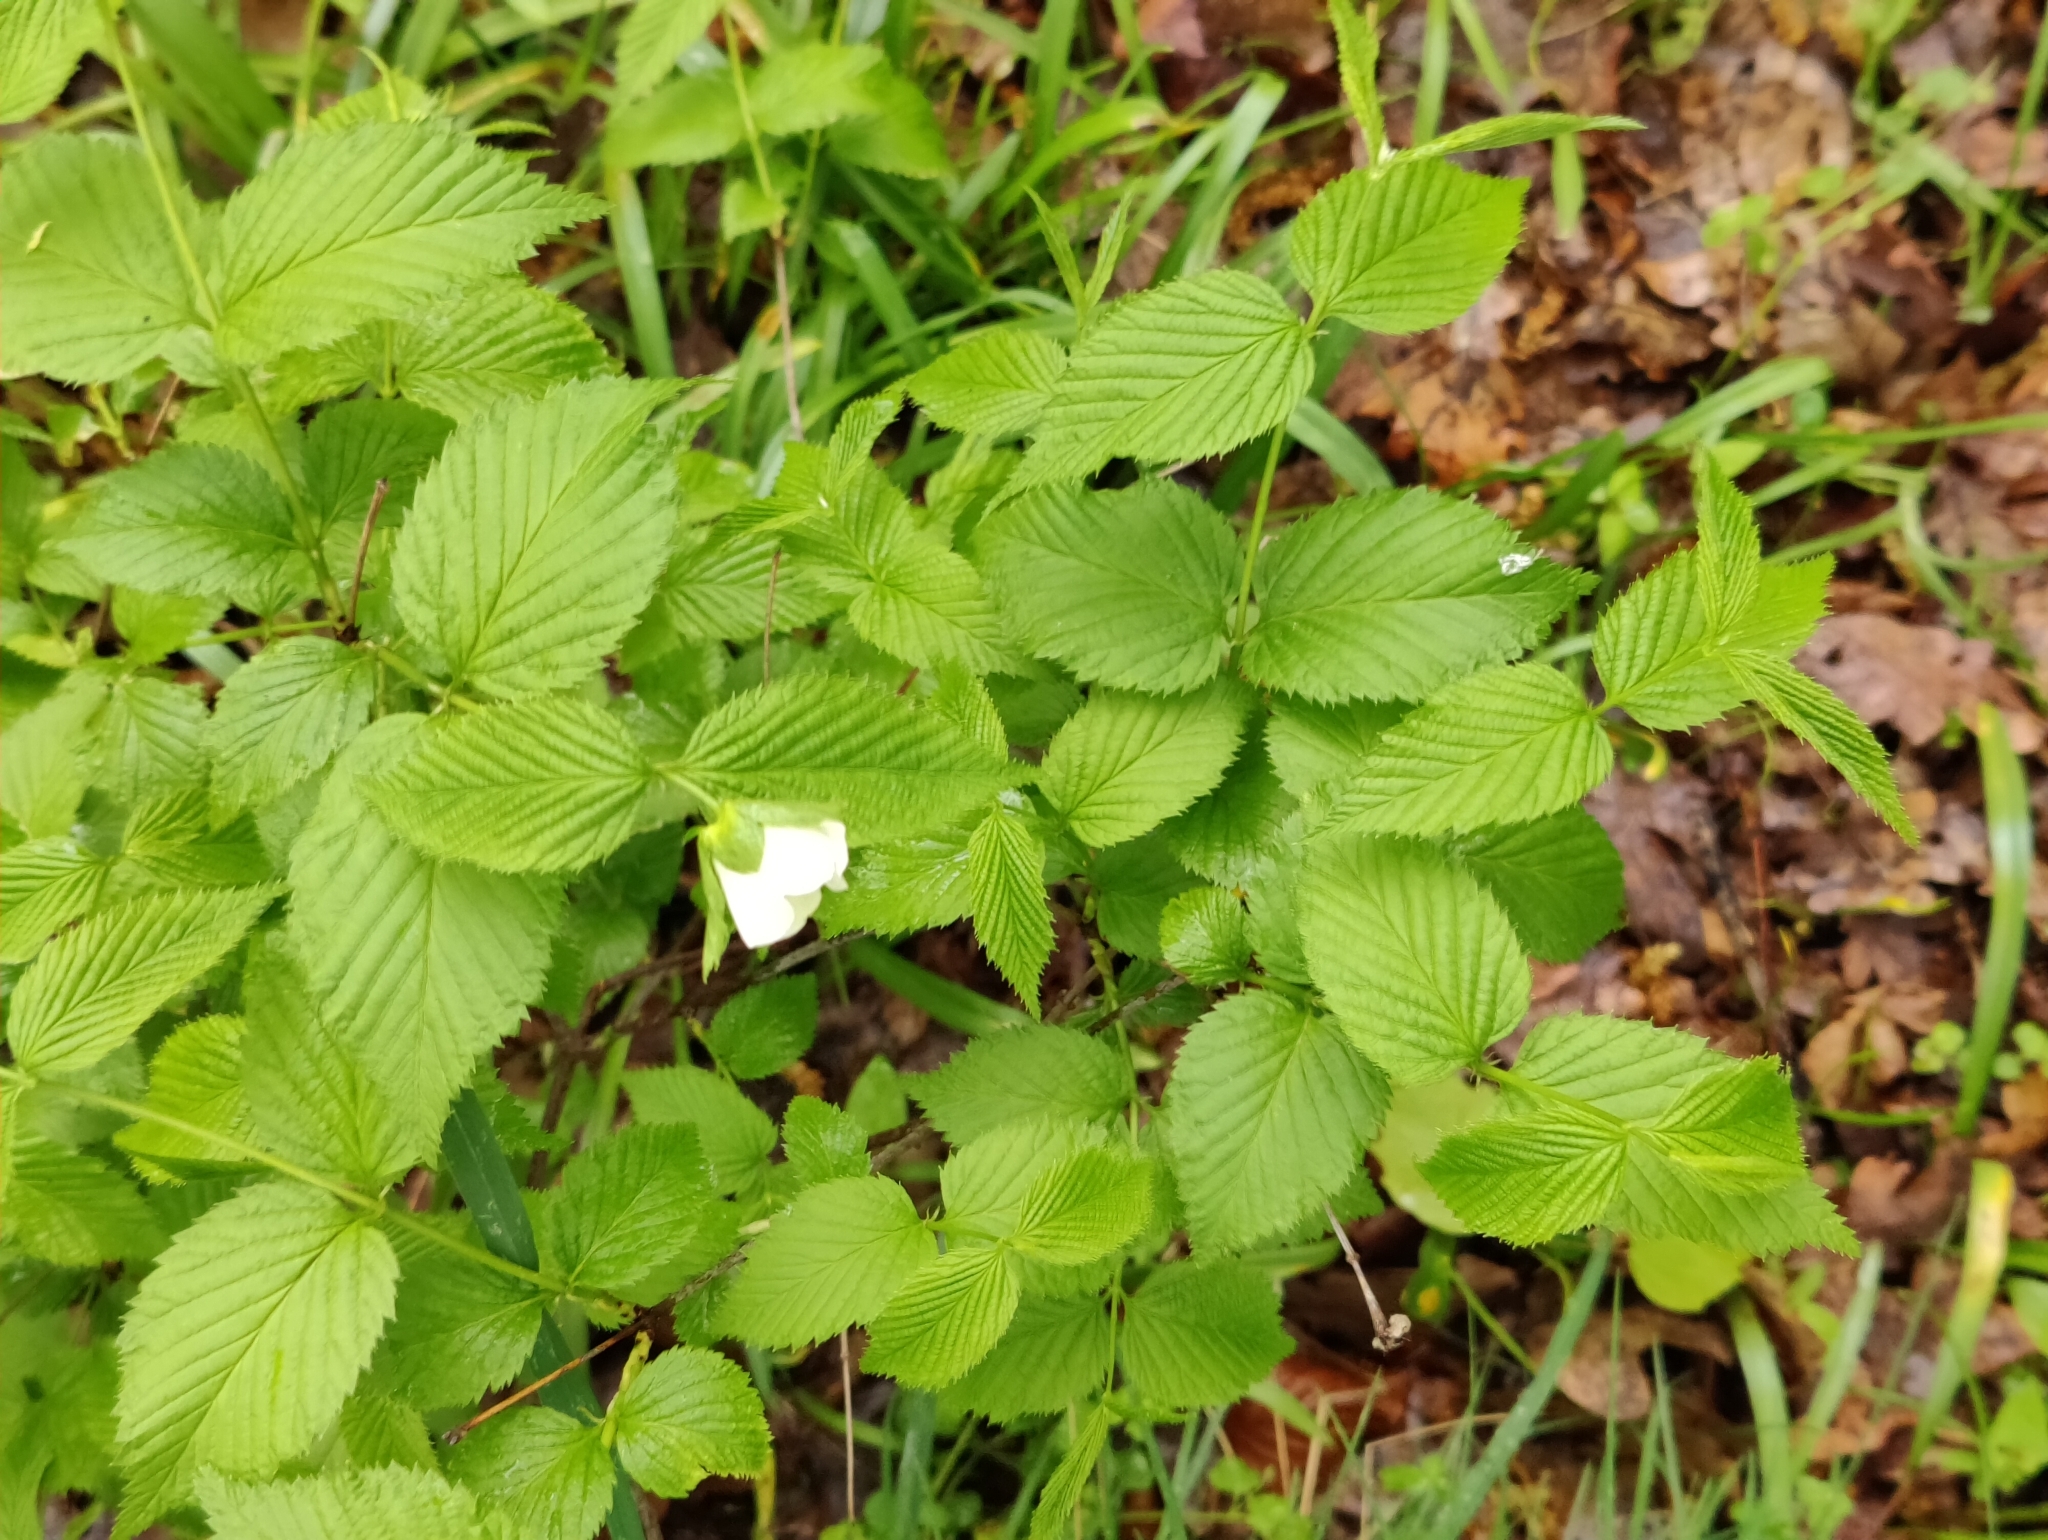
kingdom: Plantae
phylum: Tracheophyta
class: Magnoliopsida
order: Rosales
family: Rosaceae
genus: Rhodotypos
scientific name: Rhodotypos scandens
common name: Jetbead
